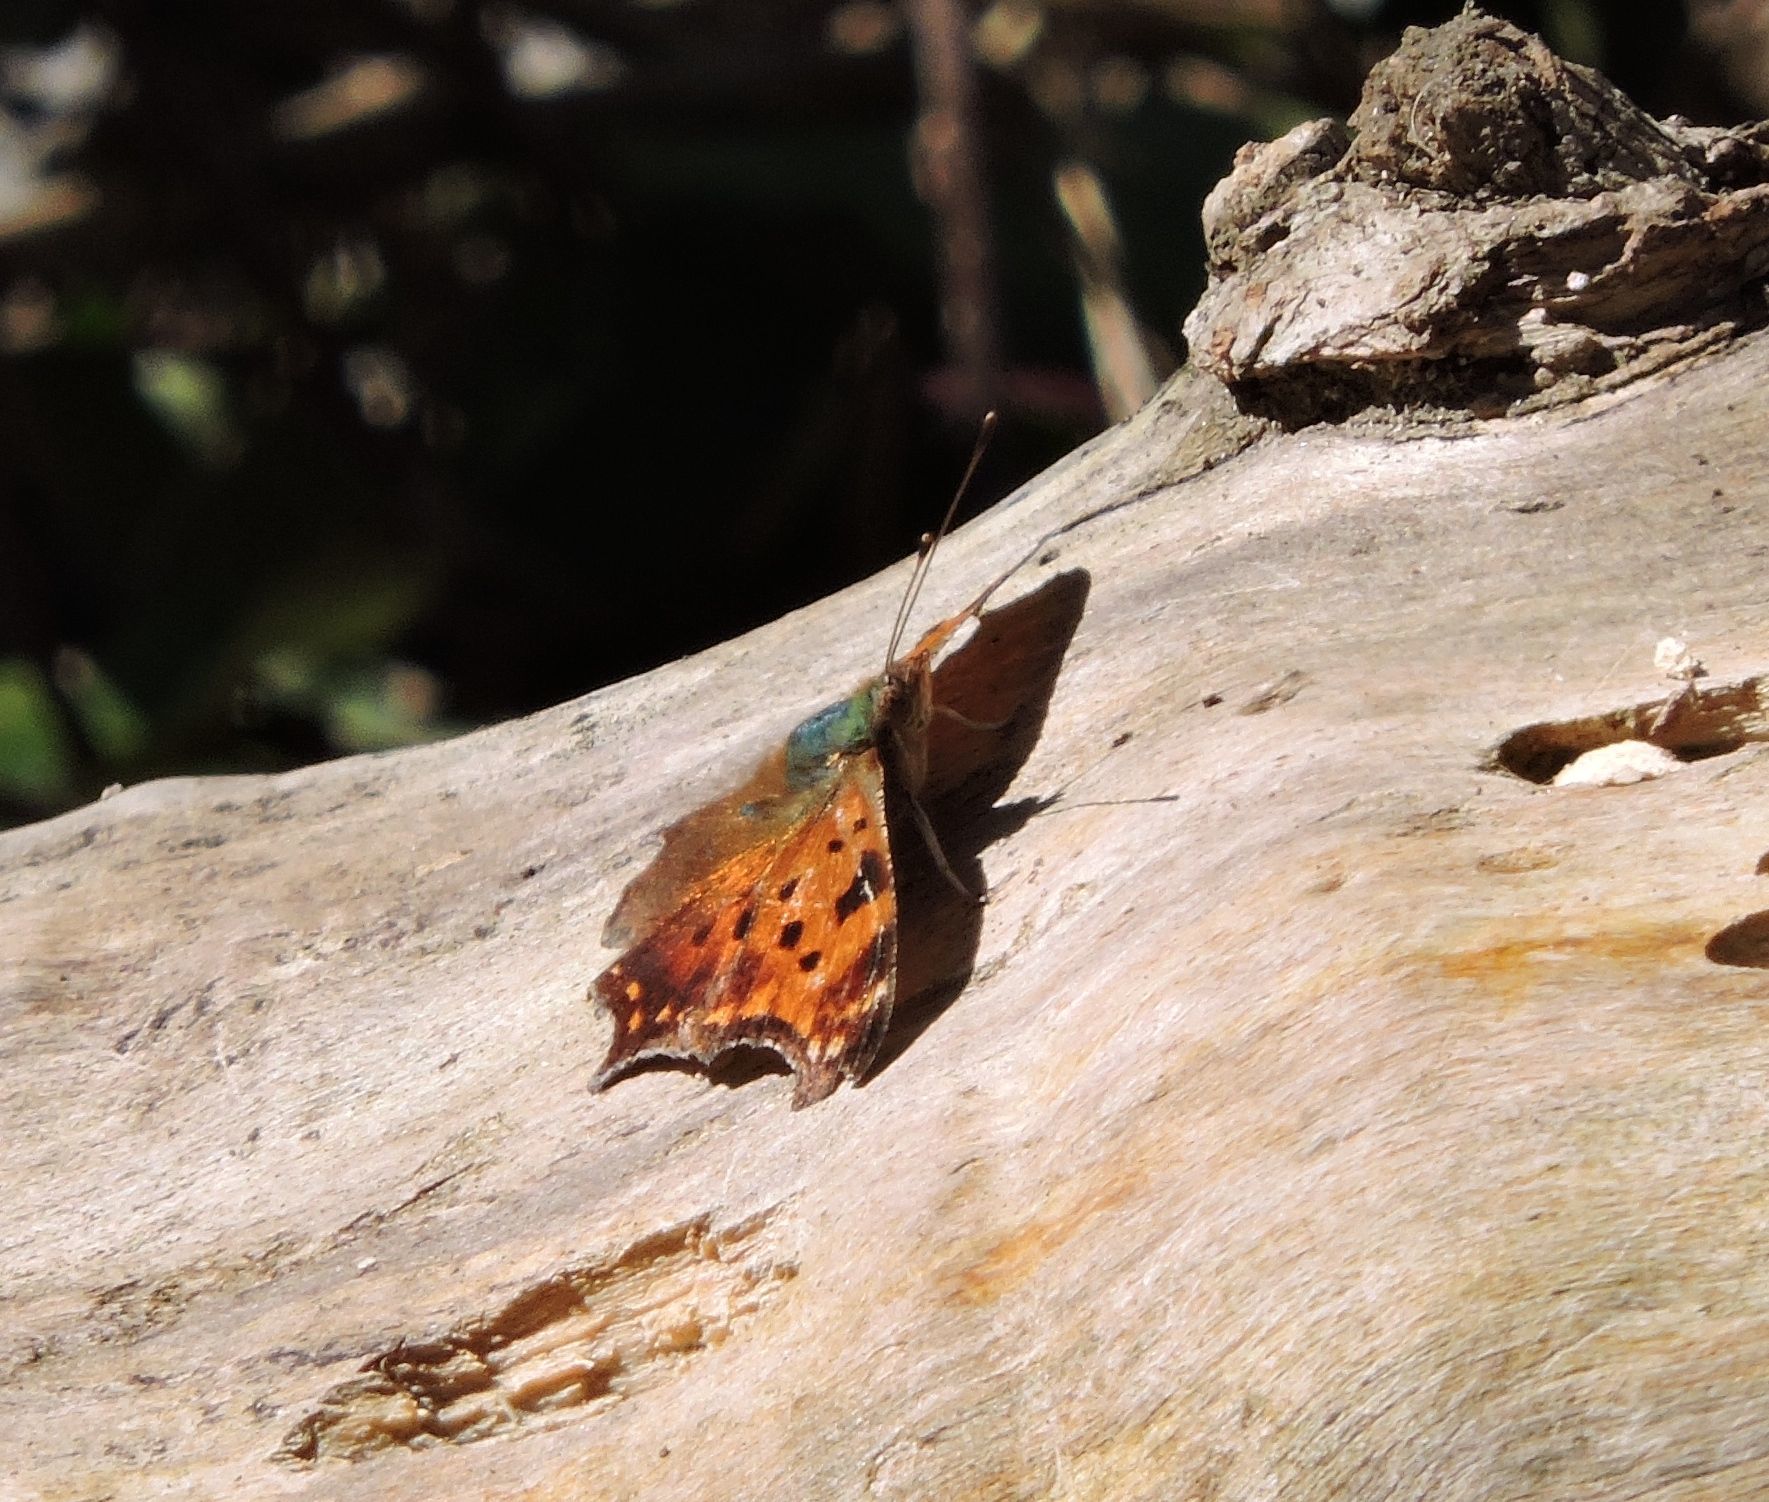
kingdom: Animalia
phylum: Arthropoda
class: Insecta
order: Lepidoptera
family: Nymphalidae
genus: Polygonia
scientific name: Polygonia comma
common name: Eastern comma
